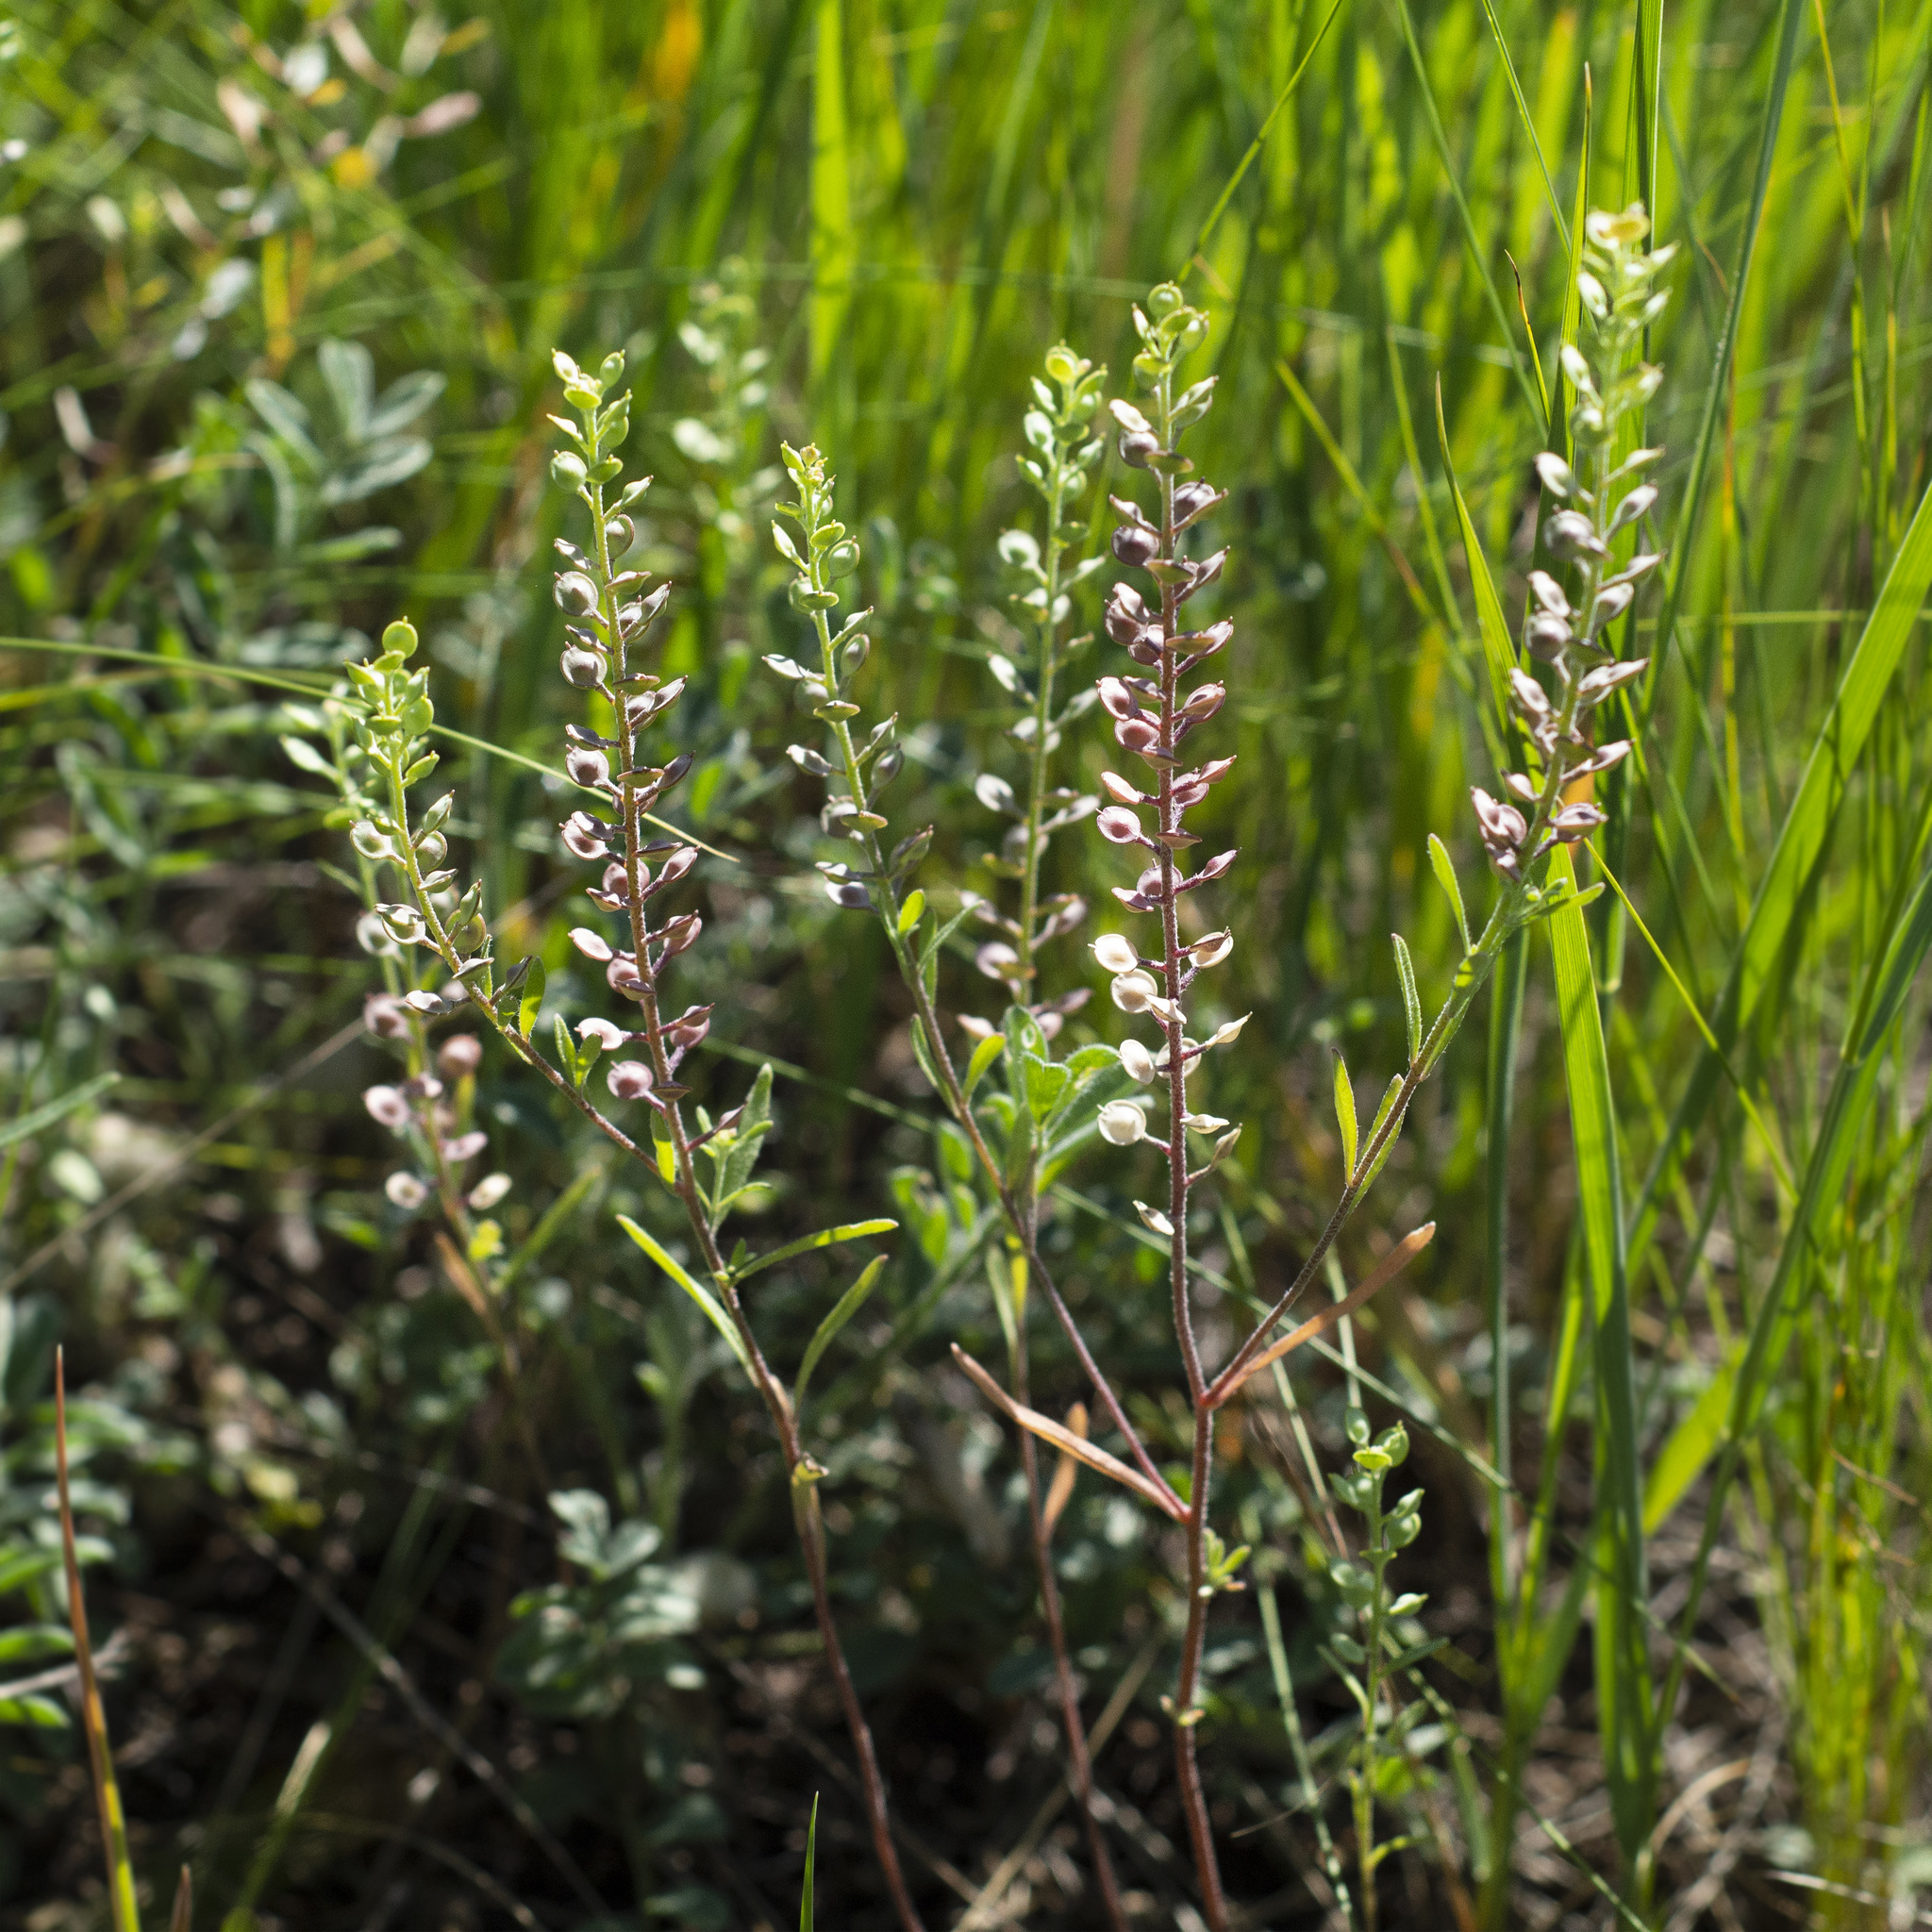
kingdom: Plantae
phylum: Tracheophyta
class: Magnoliopsida
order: Brassicales
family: Brassicaceae
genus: Alyssum
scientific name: Alyssum turkestanicum
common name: Desert alyssum
